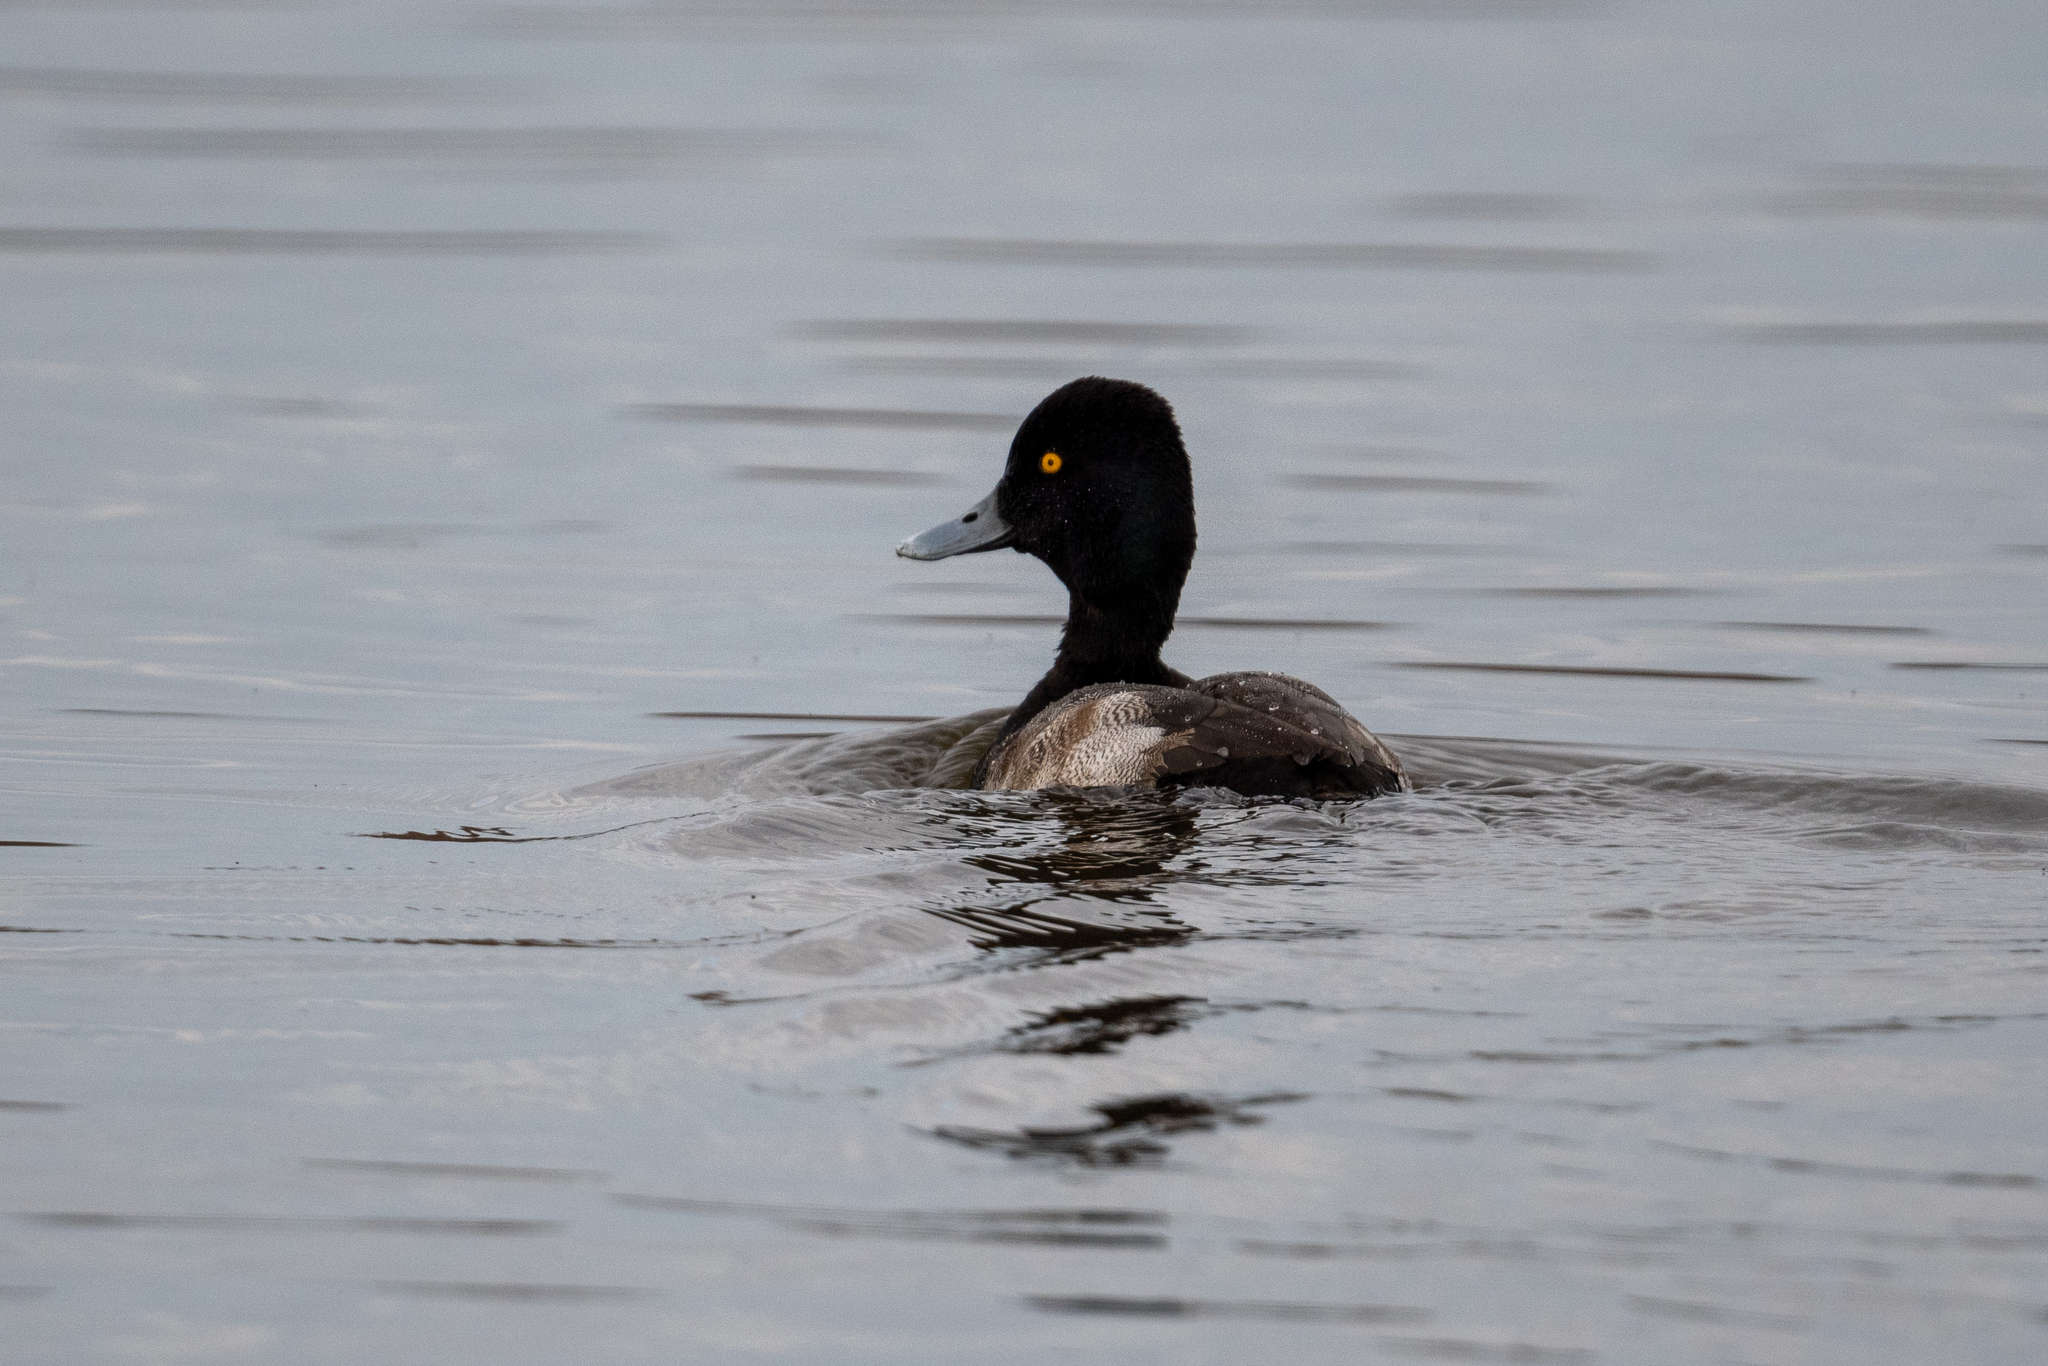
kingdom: Animalia
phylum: Chordata
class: Aves
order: Anseriformes
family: Anatidae
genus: Aythya
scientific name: Aythya affinis
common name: Lesser scaup
